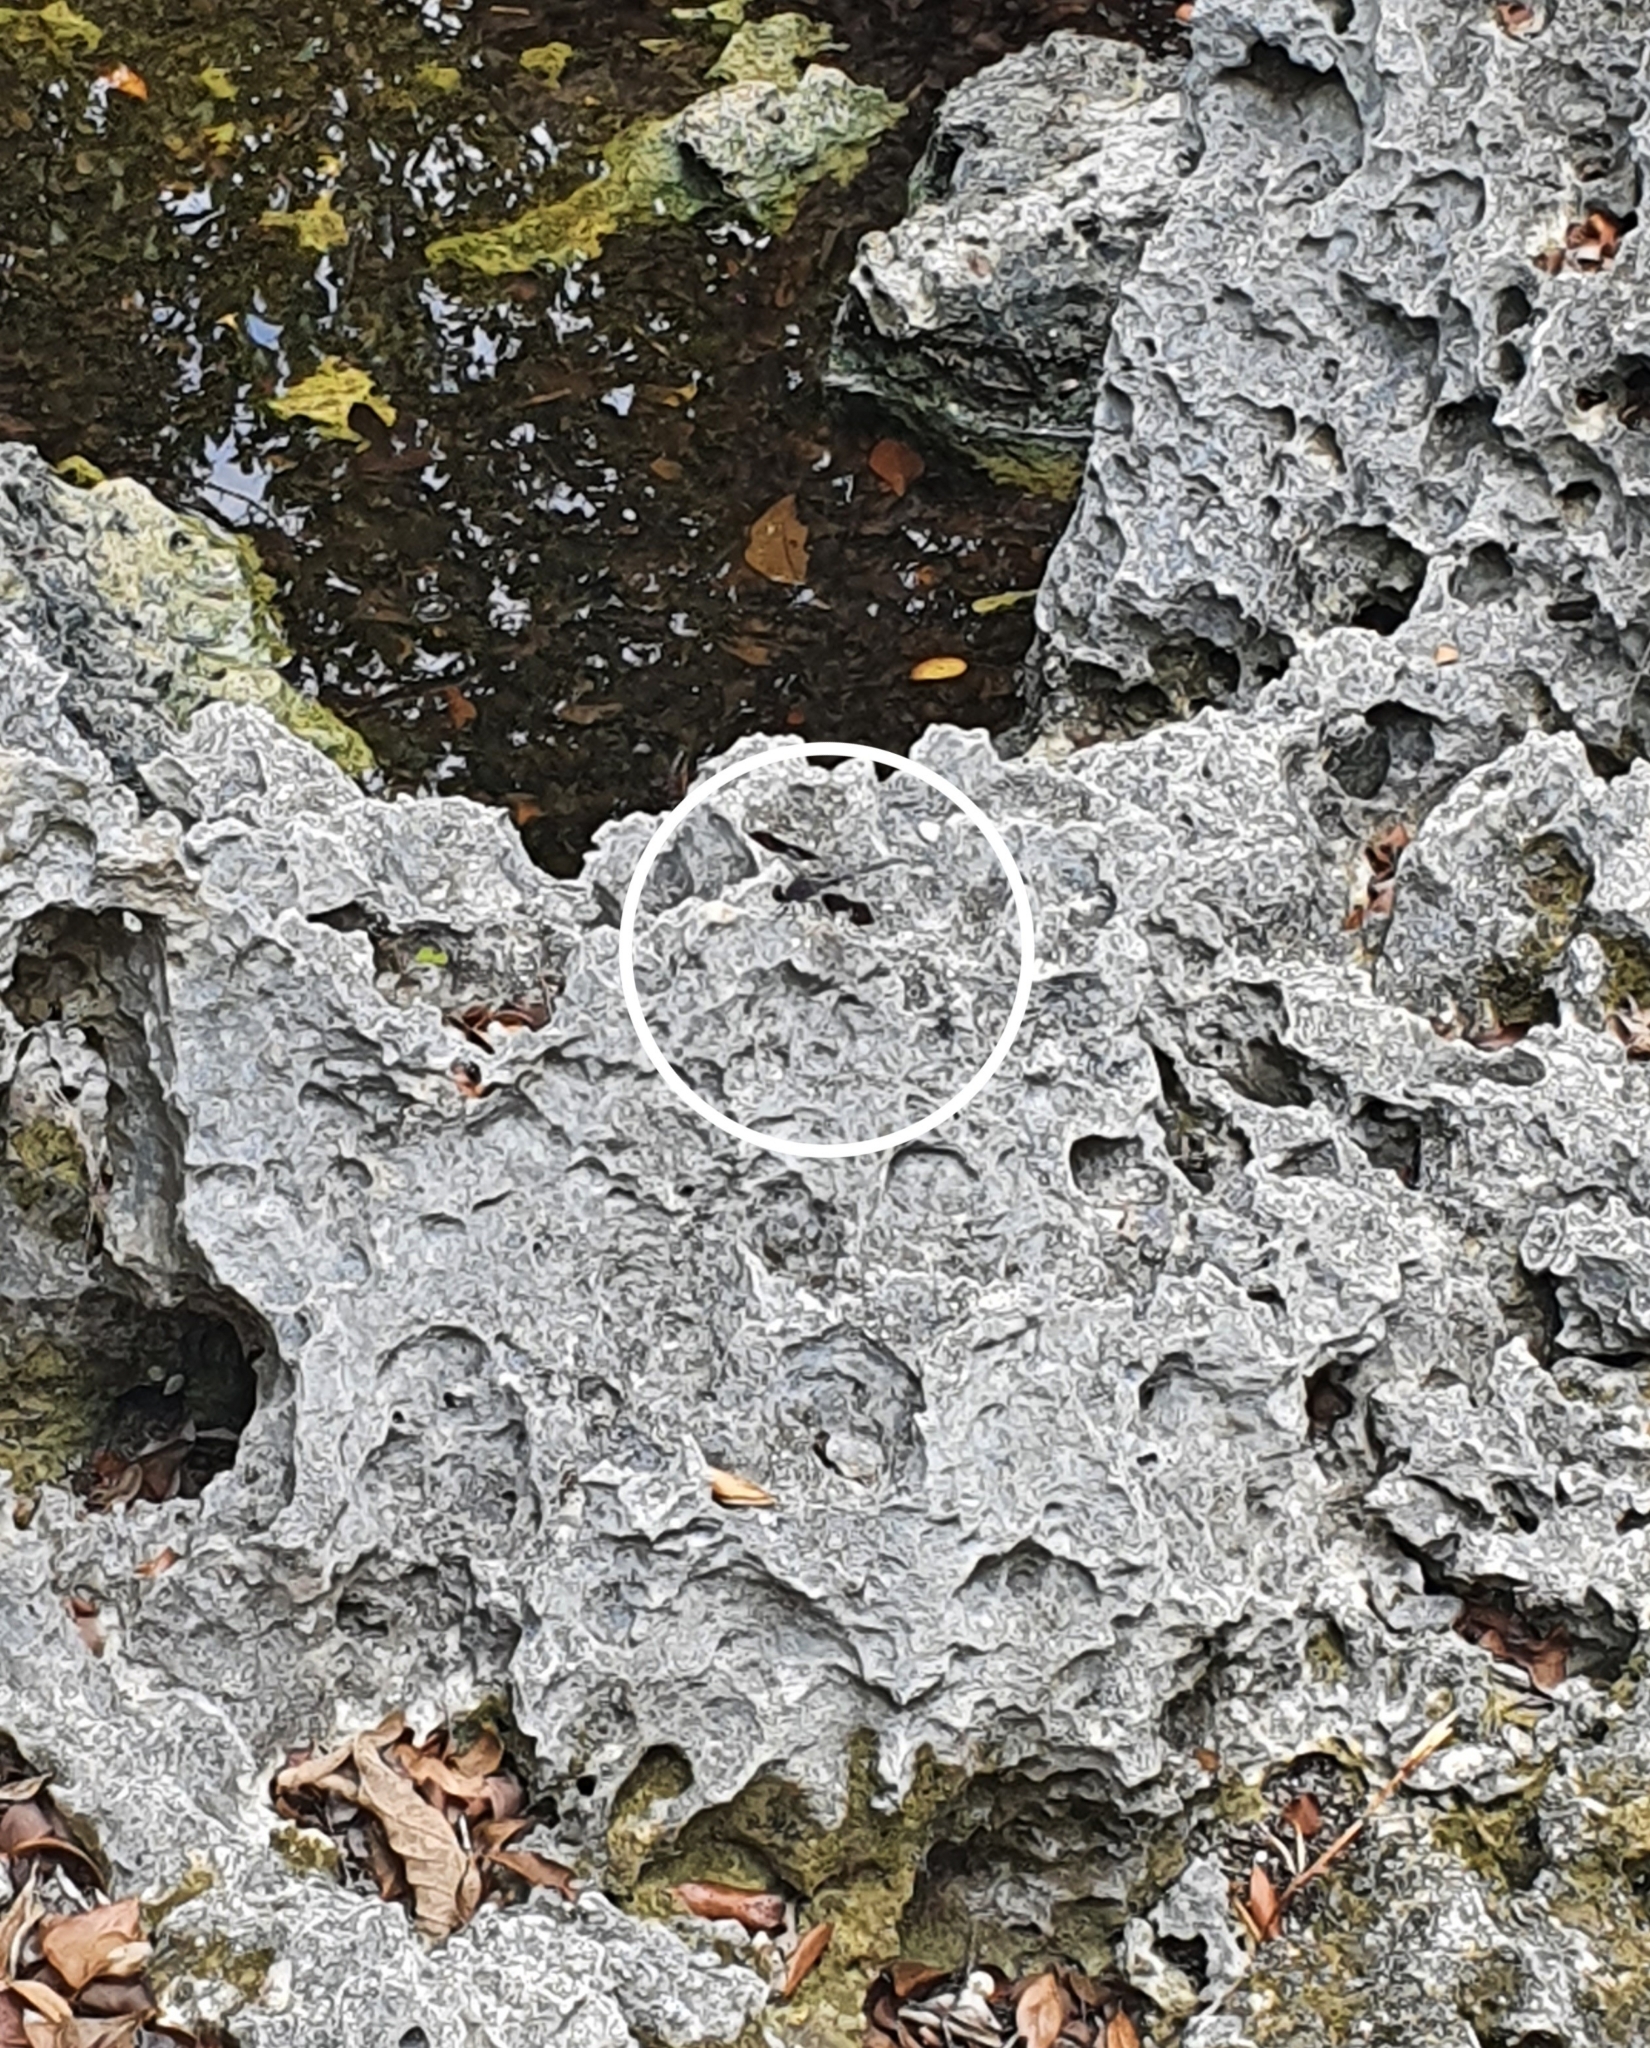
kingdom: Animalia
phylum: Arthropoda
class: Insecta
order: Odonata
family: Libellulidae
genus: Erythrodiplax
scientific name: Erythrodiplax umbrata
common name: Band-winged dragonlet
